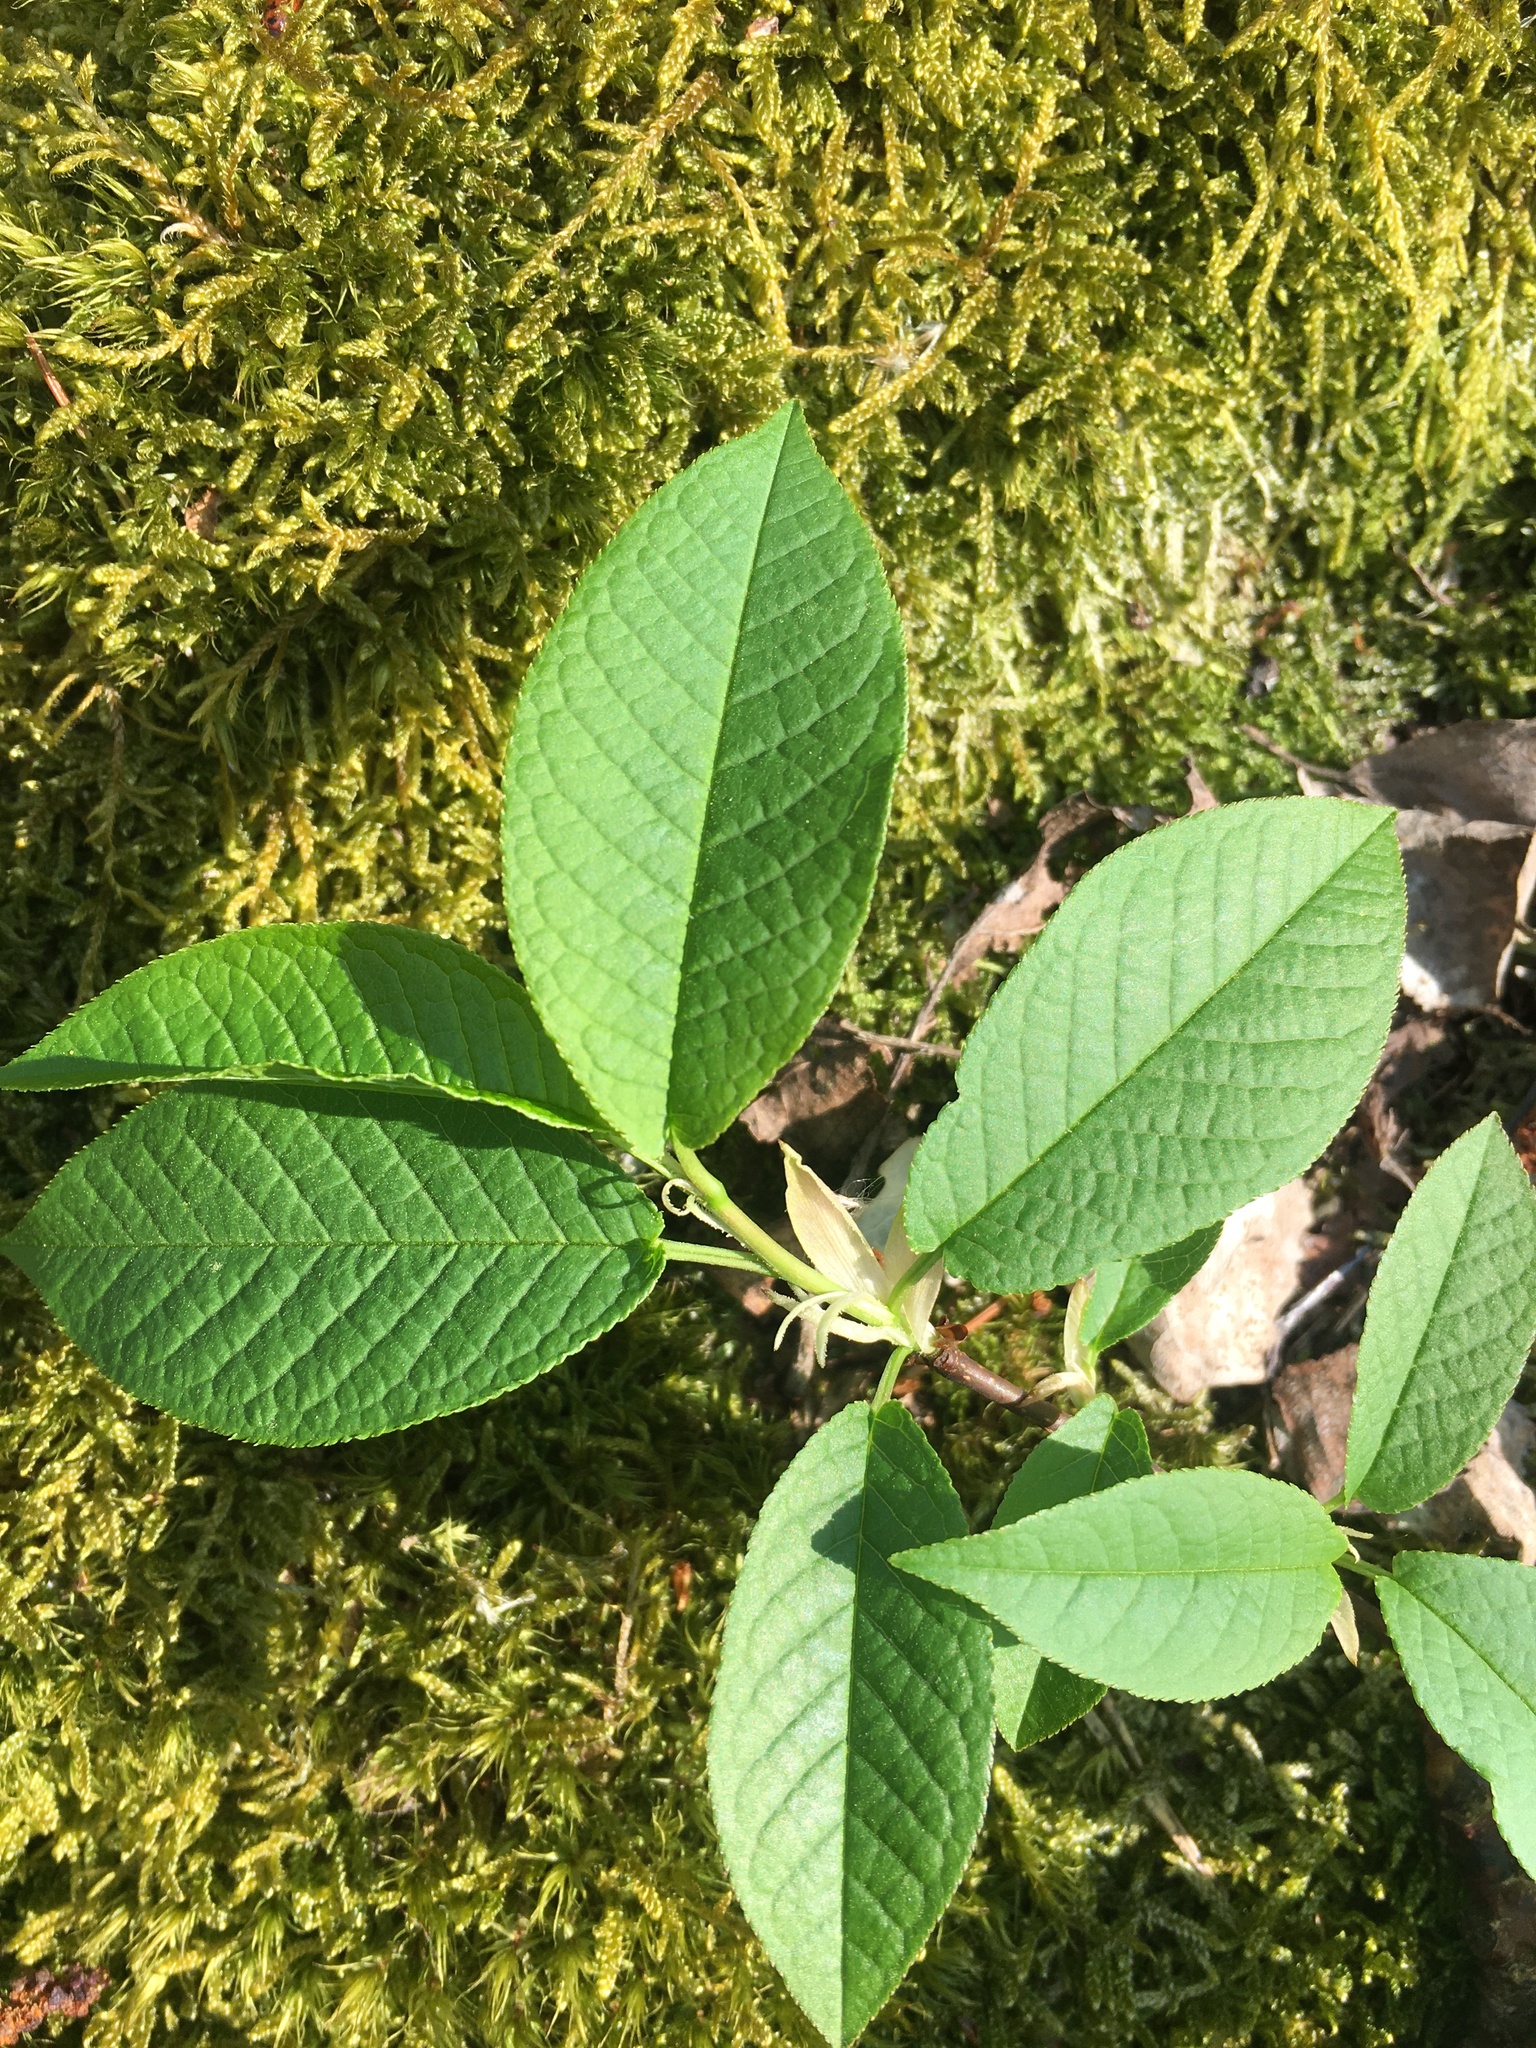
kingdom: Plantae
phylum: Tracheophyta
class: Magnoliopsida
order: Rosales
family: Rosaceae
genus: Prunus
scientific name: Prunus padus
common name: Bird cherry
